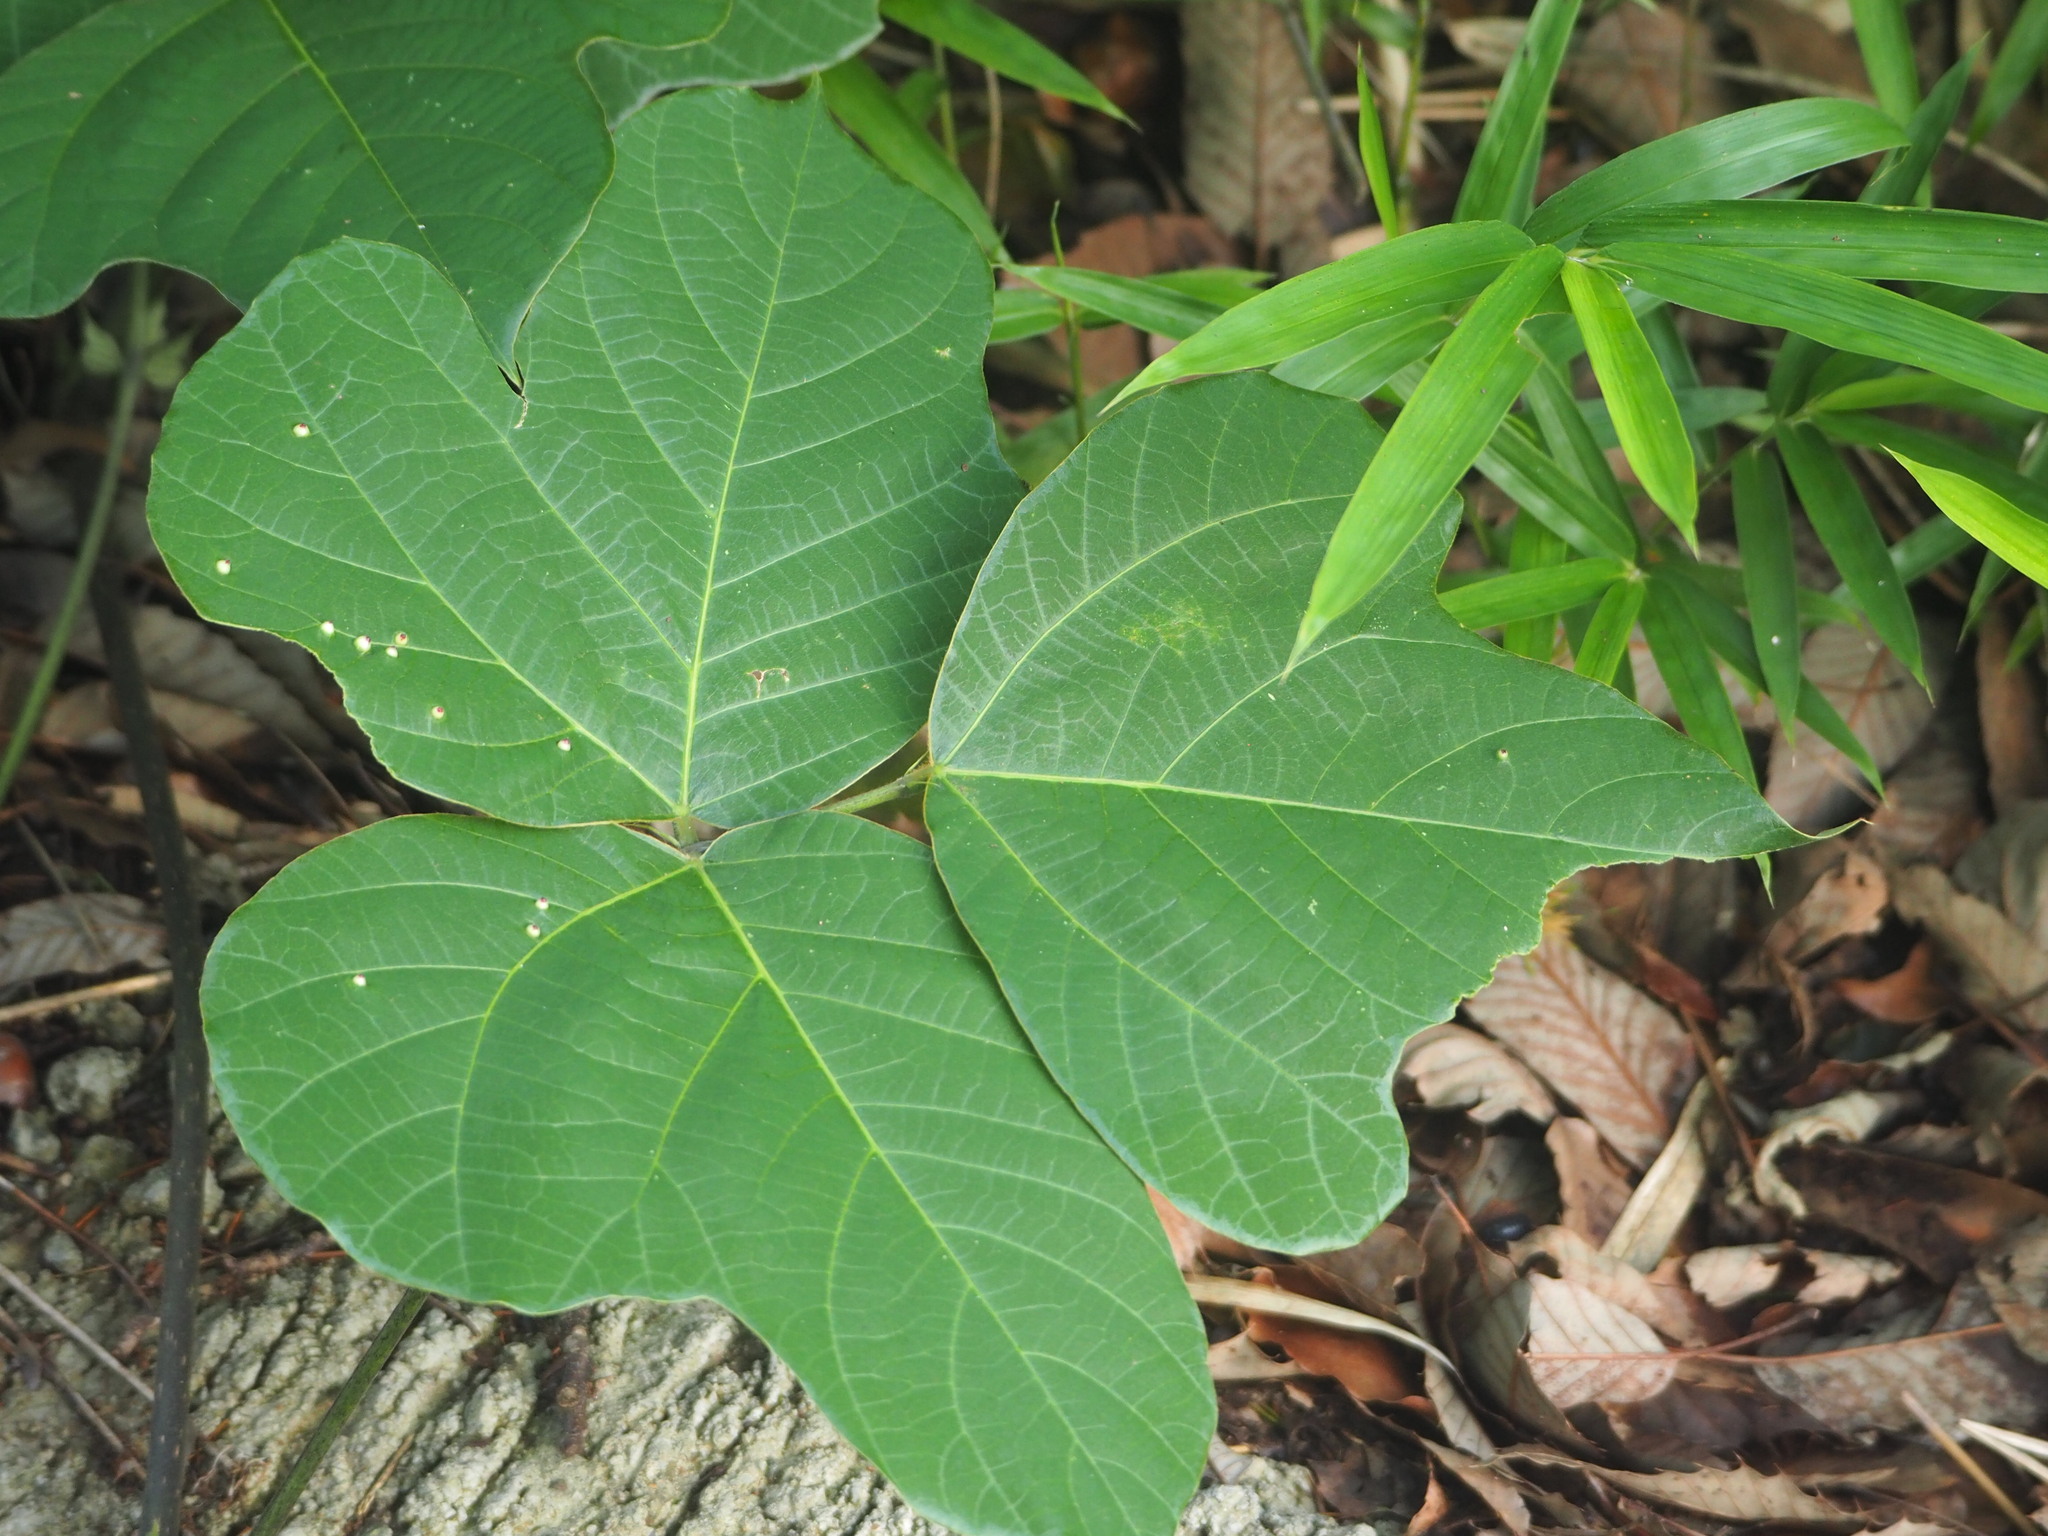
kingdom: Plantae
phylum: Tracheophyta
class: Magnoliopsida
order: Fabales
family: Fabaceae
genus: Pueraria
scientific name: Pueraria montana
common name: Kudzu
